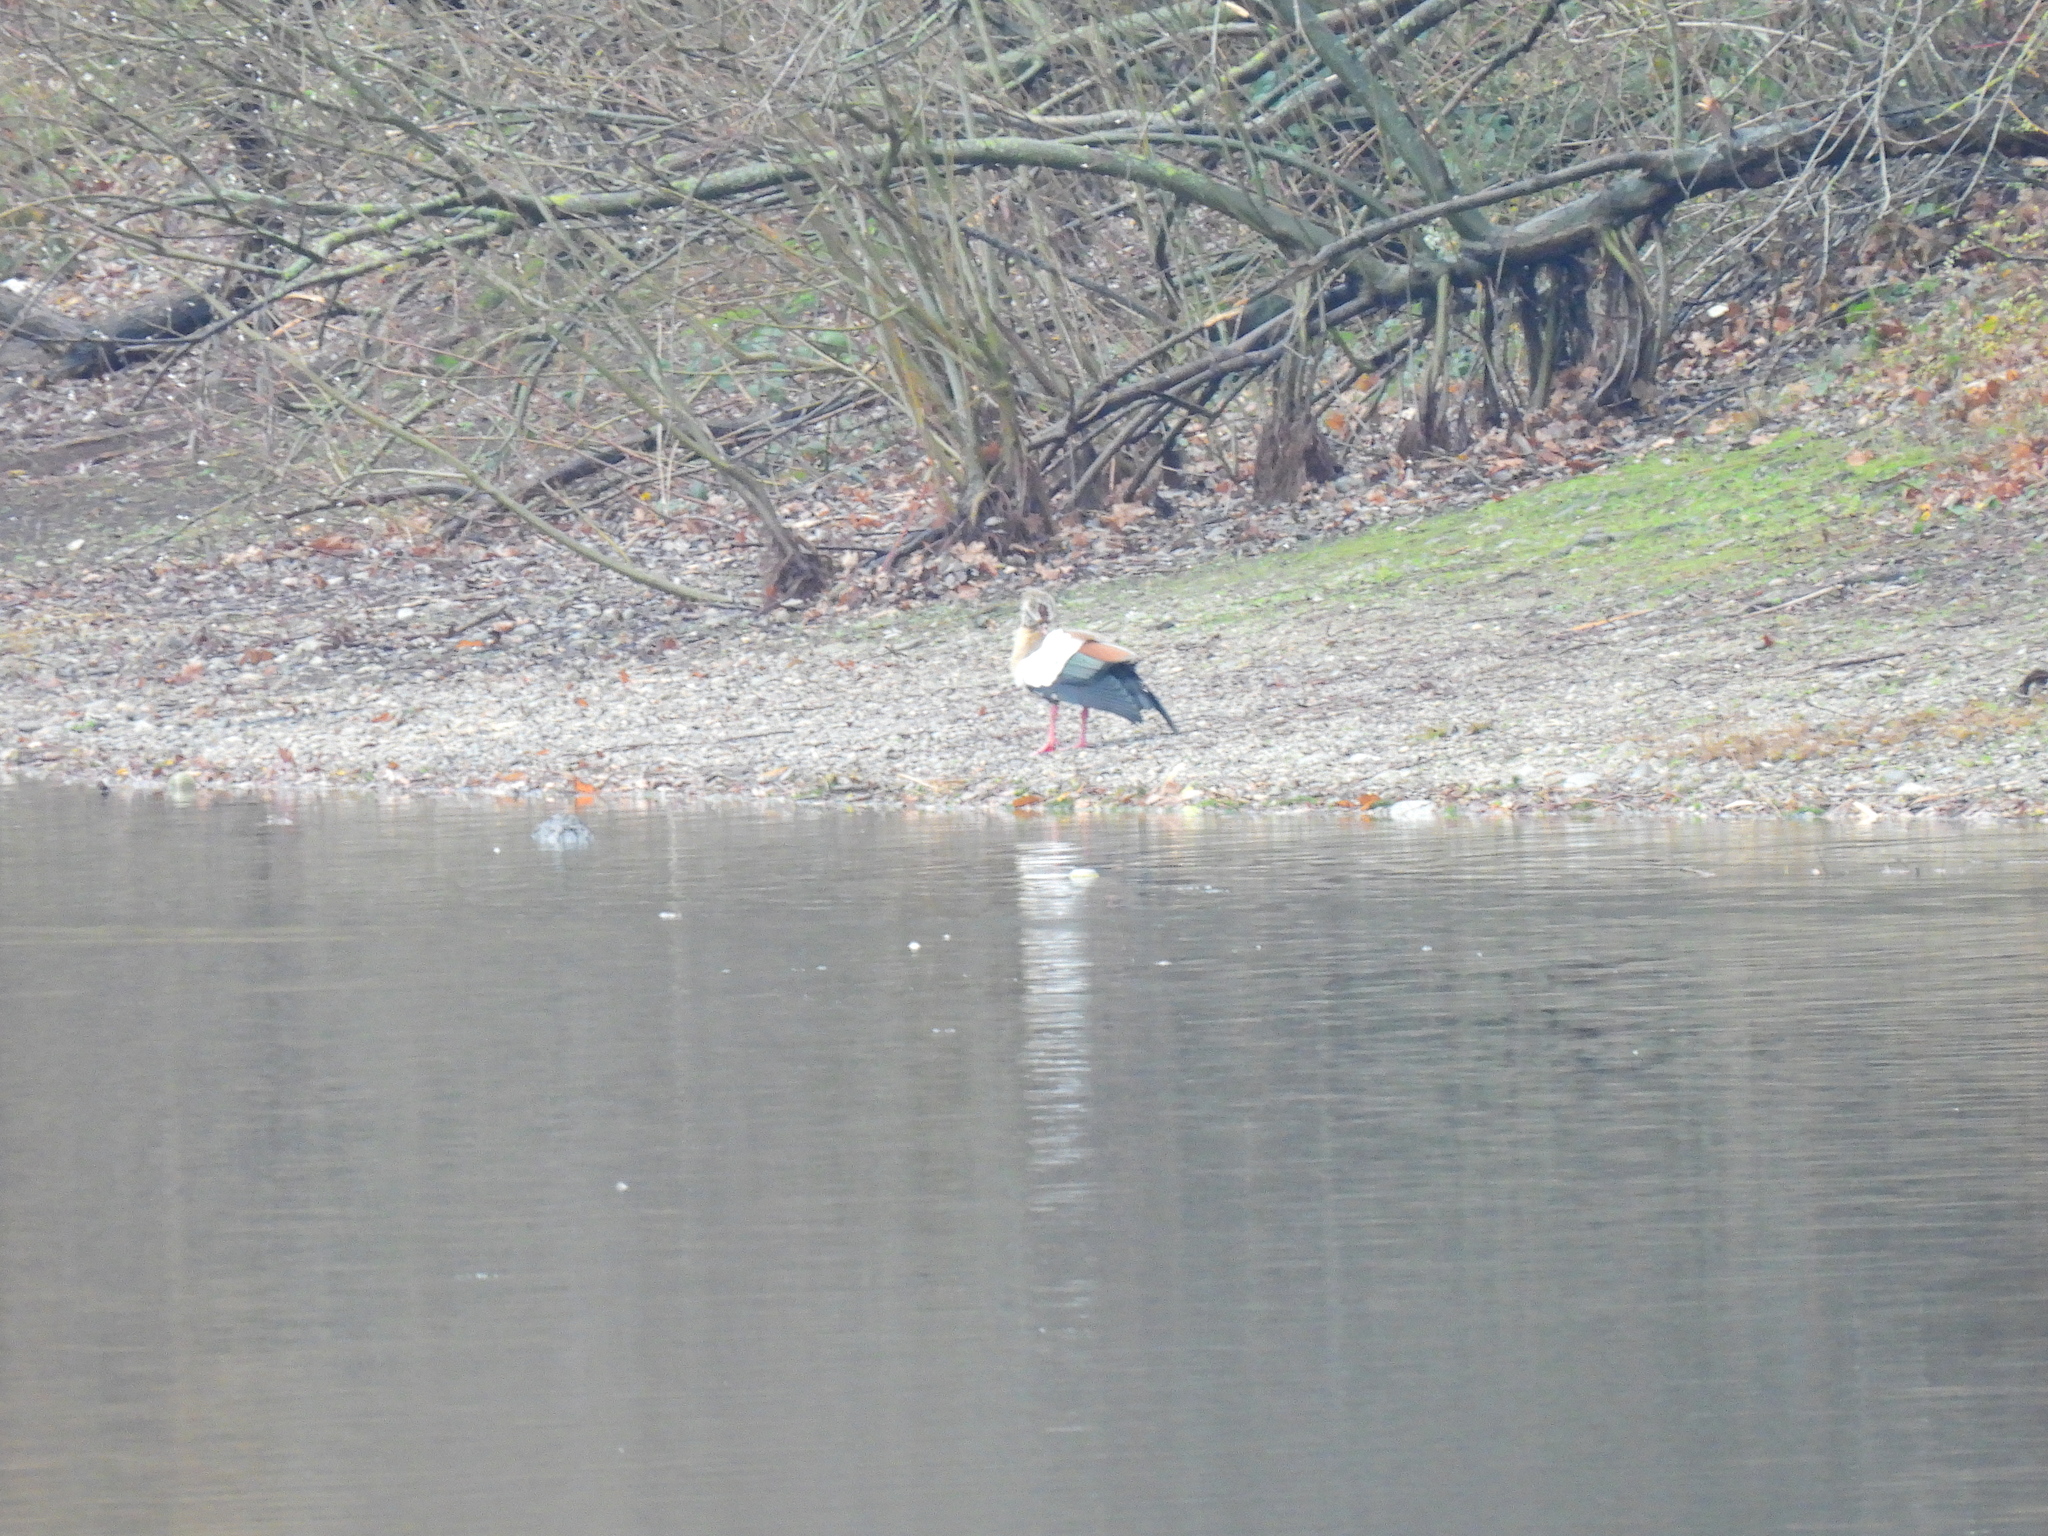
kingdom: Animalia
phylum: Chordata
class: Aves
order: Anseriformes
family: Anatidae
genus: Alopochen
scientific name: Alopochen aegyptiaca
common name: Egyptian goose
